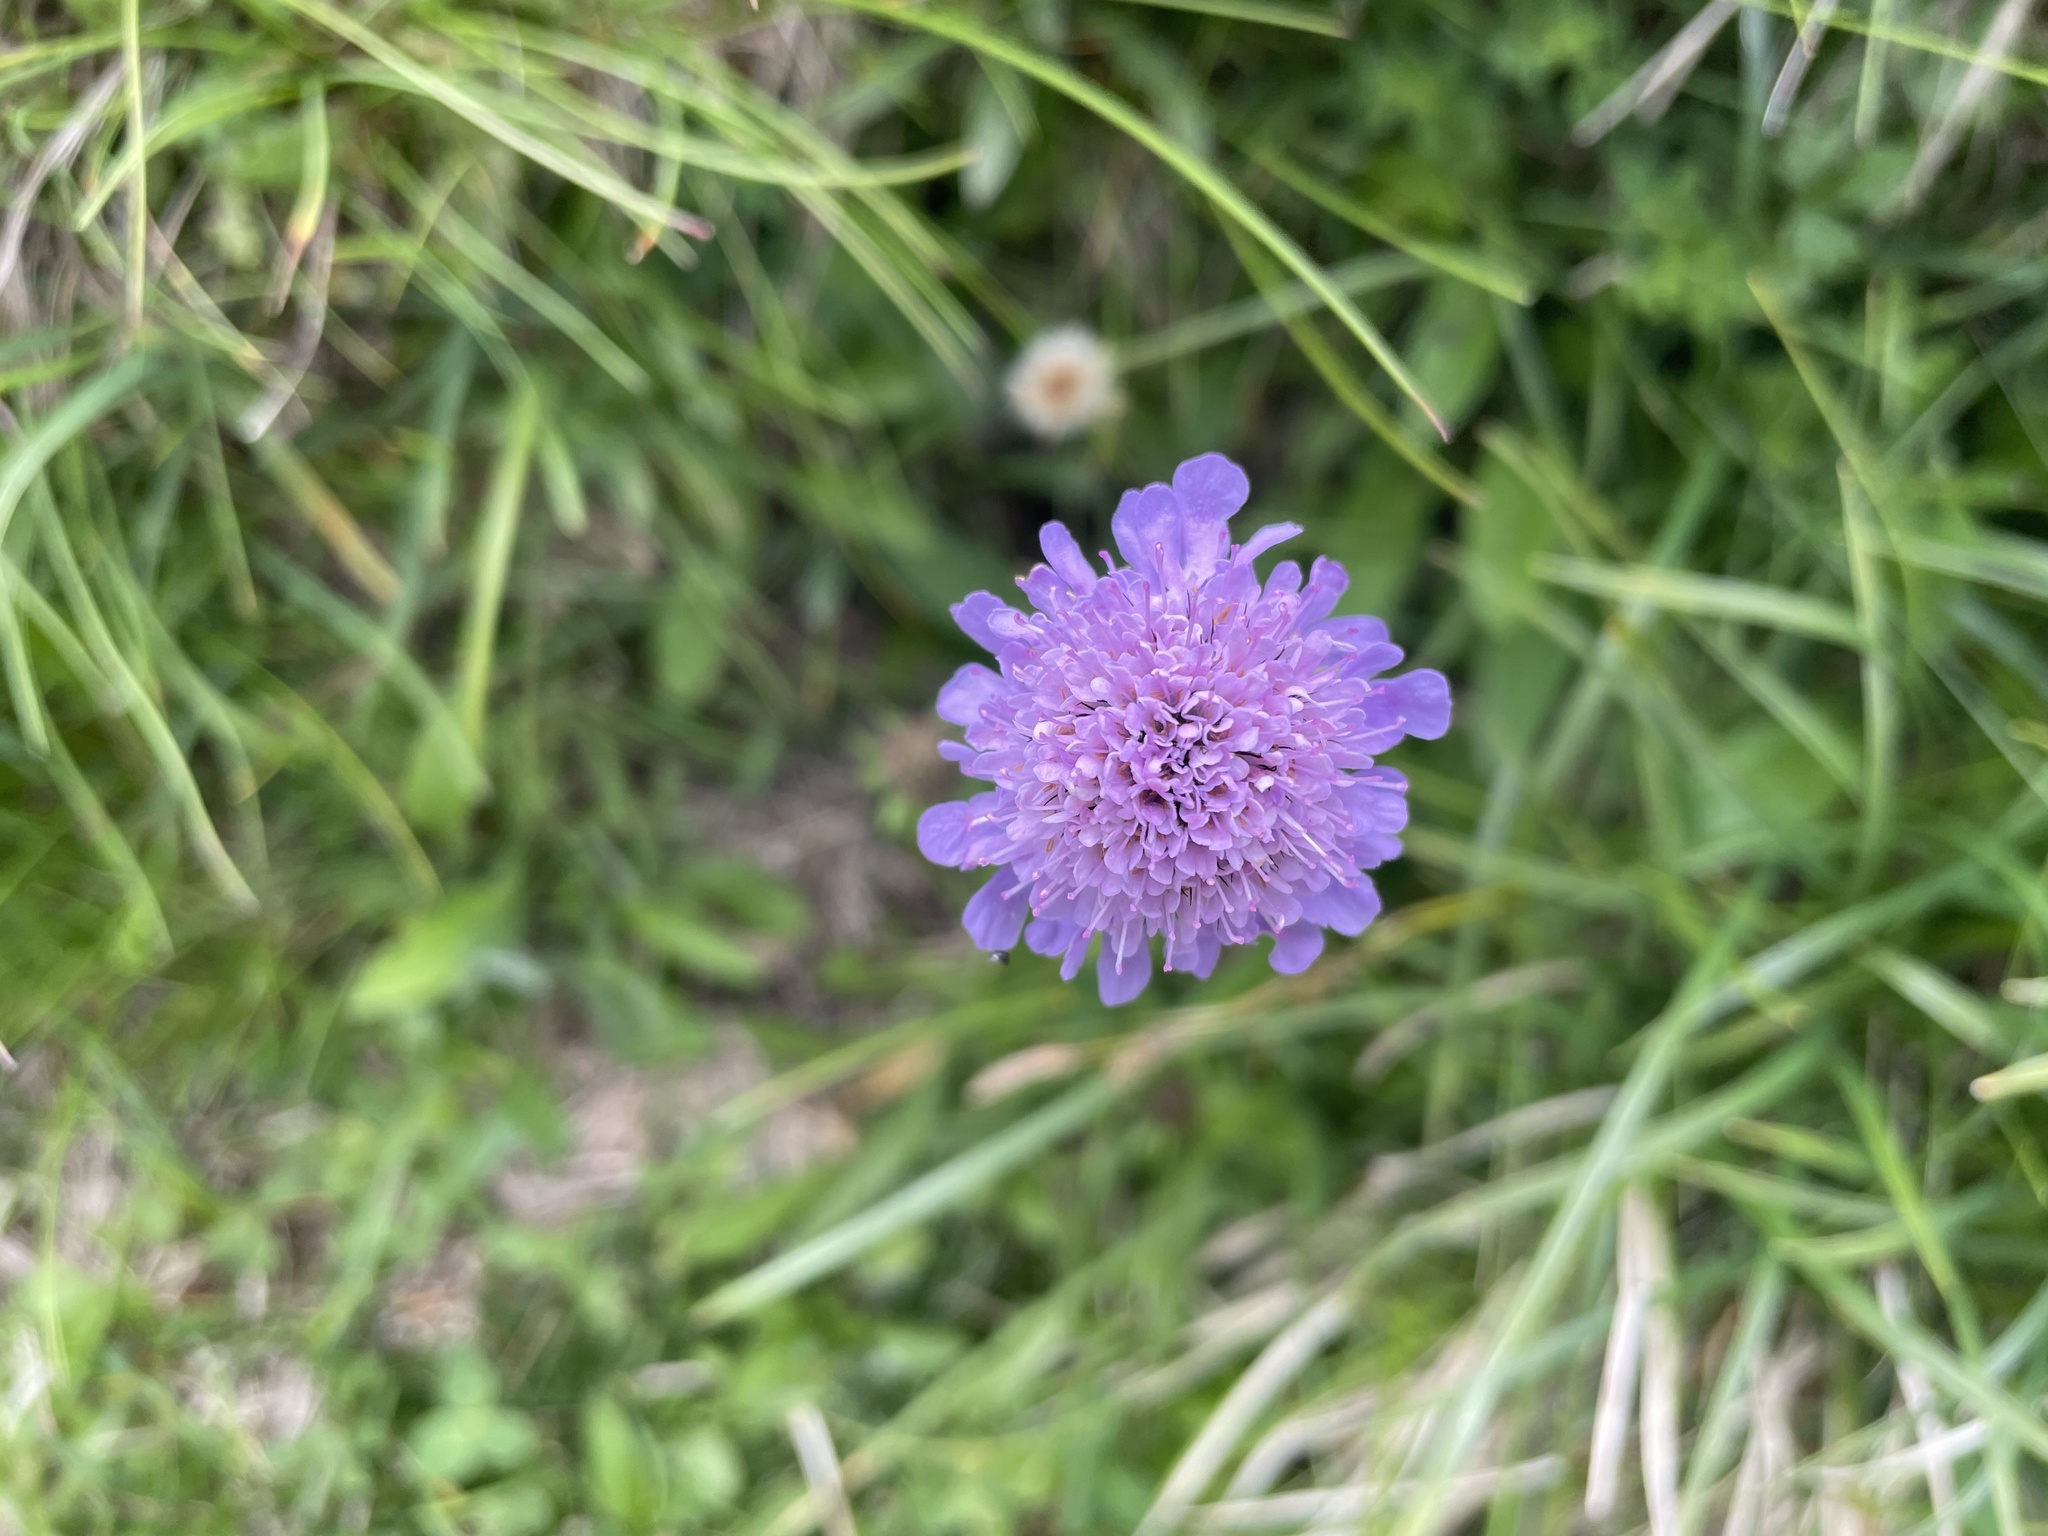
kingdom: Plantae
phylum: Tracheophyta
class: Magnoliopsida
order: Dipsacales
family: Caprifoliaceae
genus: Scabiosa
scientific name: Scabiosa lucida
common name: Shining scabious
